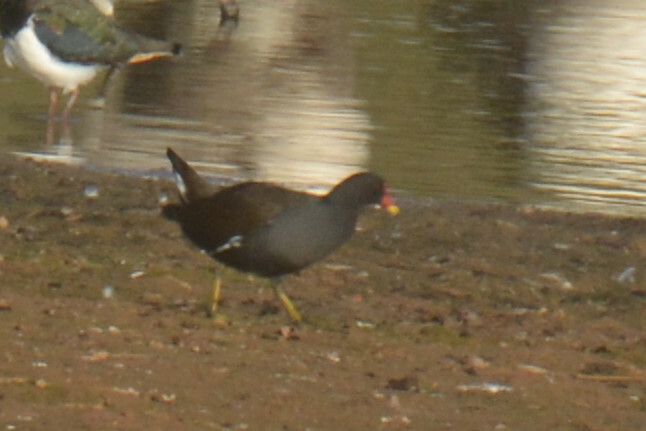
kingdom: Animalia
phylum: Chordata
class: Aves
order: Gruiformes
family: Rallidae
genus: Gallinula
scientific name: Gallinula chloropus
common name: Common moorhen
